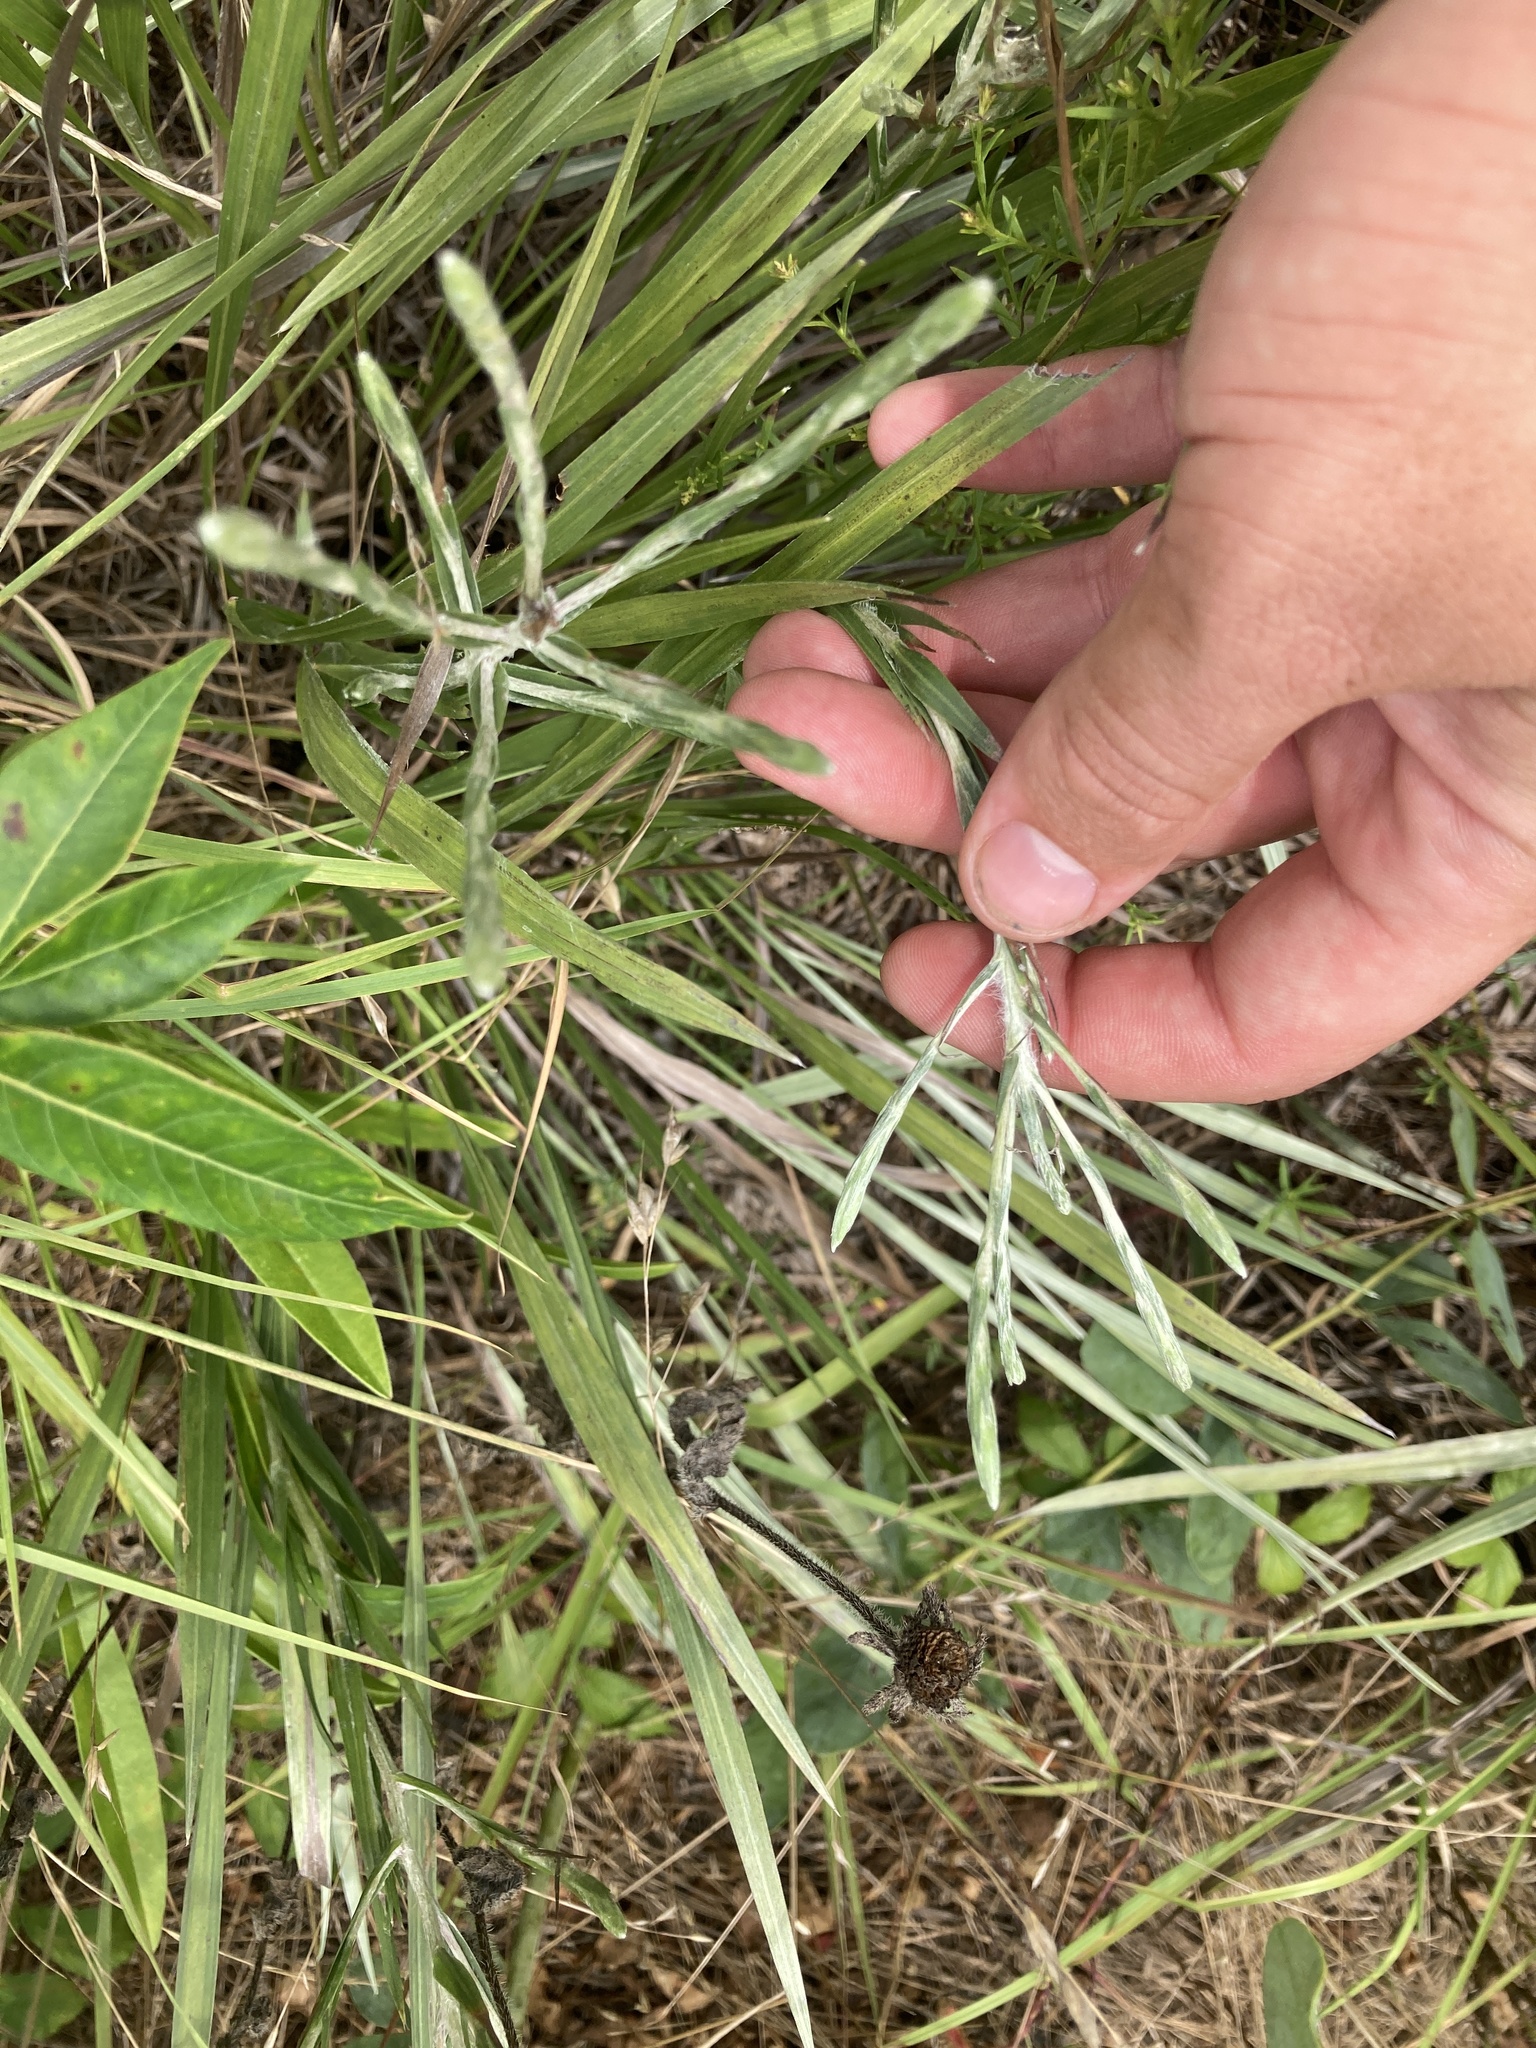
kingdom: Plantae
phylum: Tracheophyta
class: Magnoliopsida
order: Asterales
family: Asteraceae
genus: Pityopsis
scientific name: Pityopsis graminifolia
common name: Grass-leaf golden-aster
